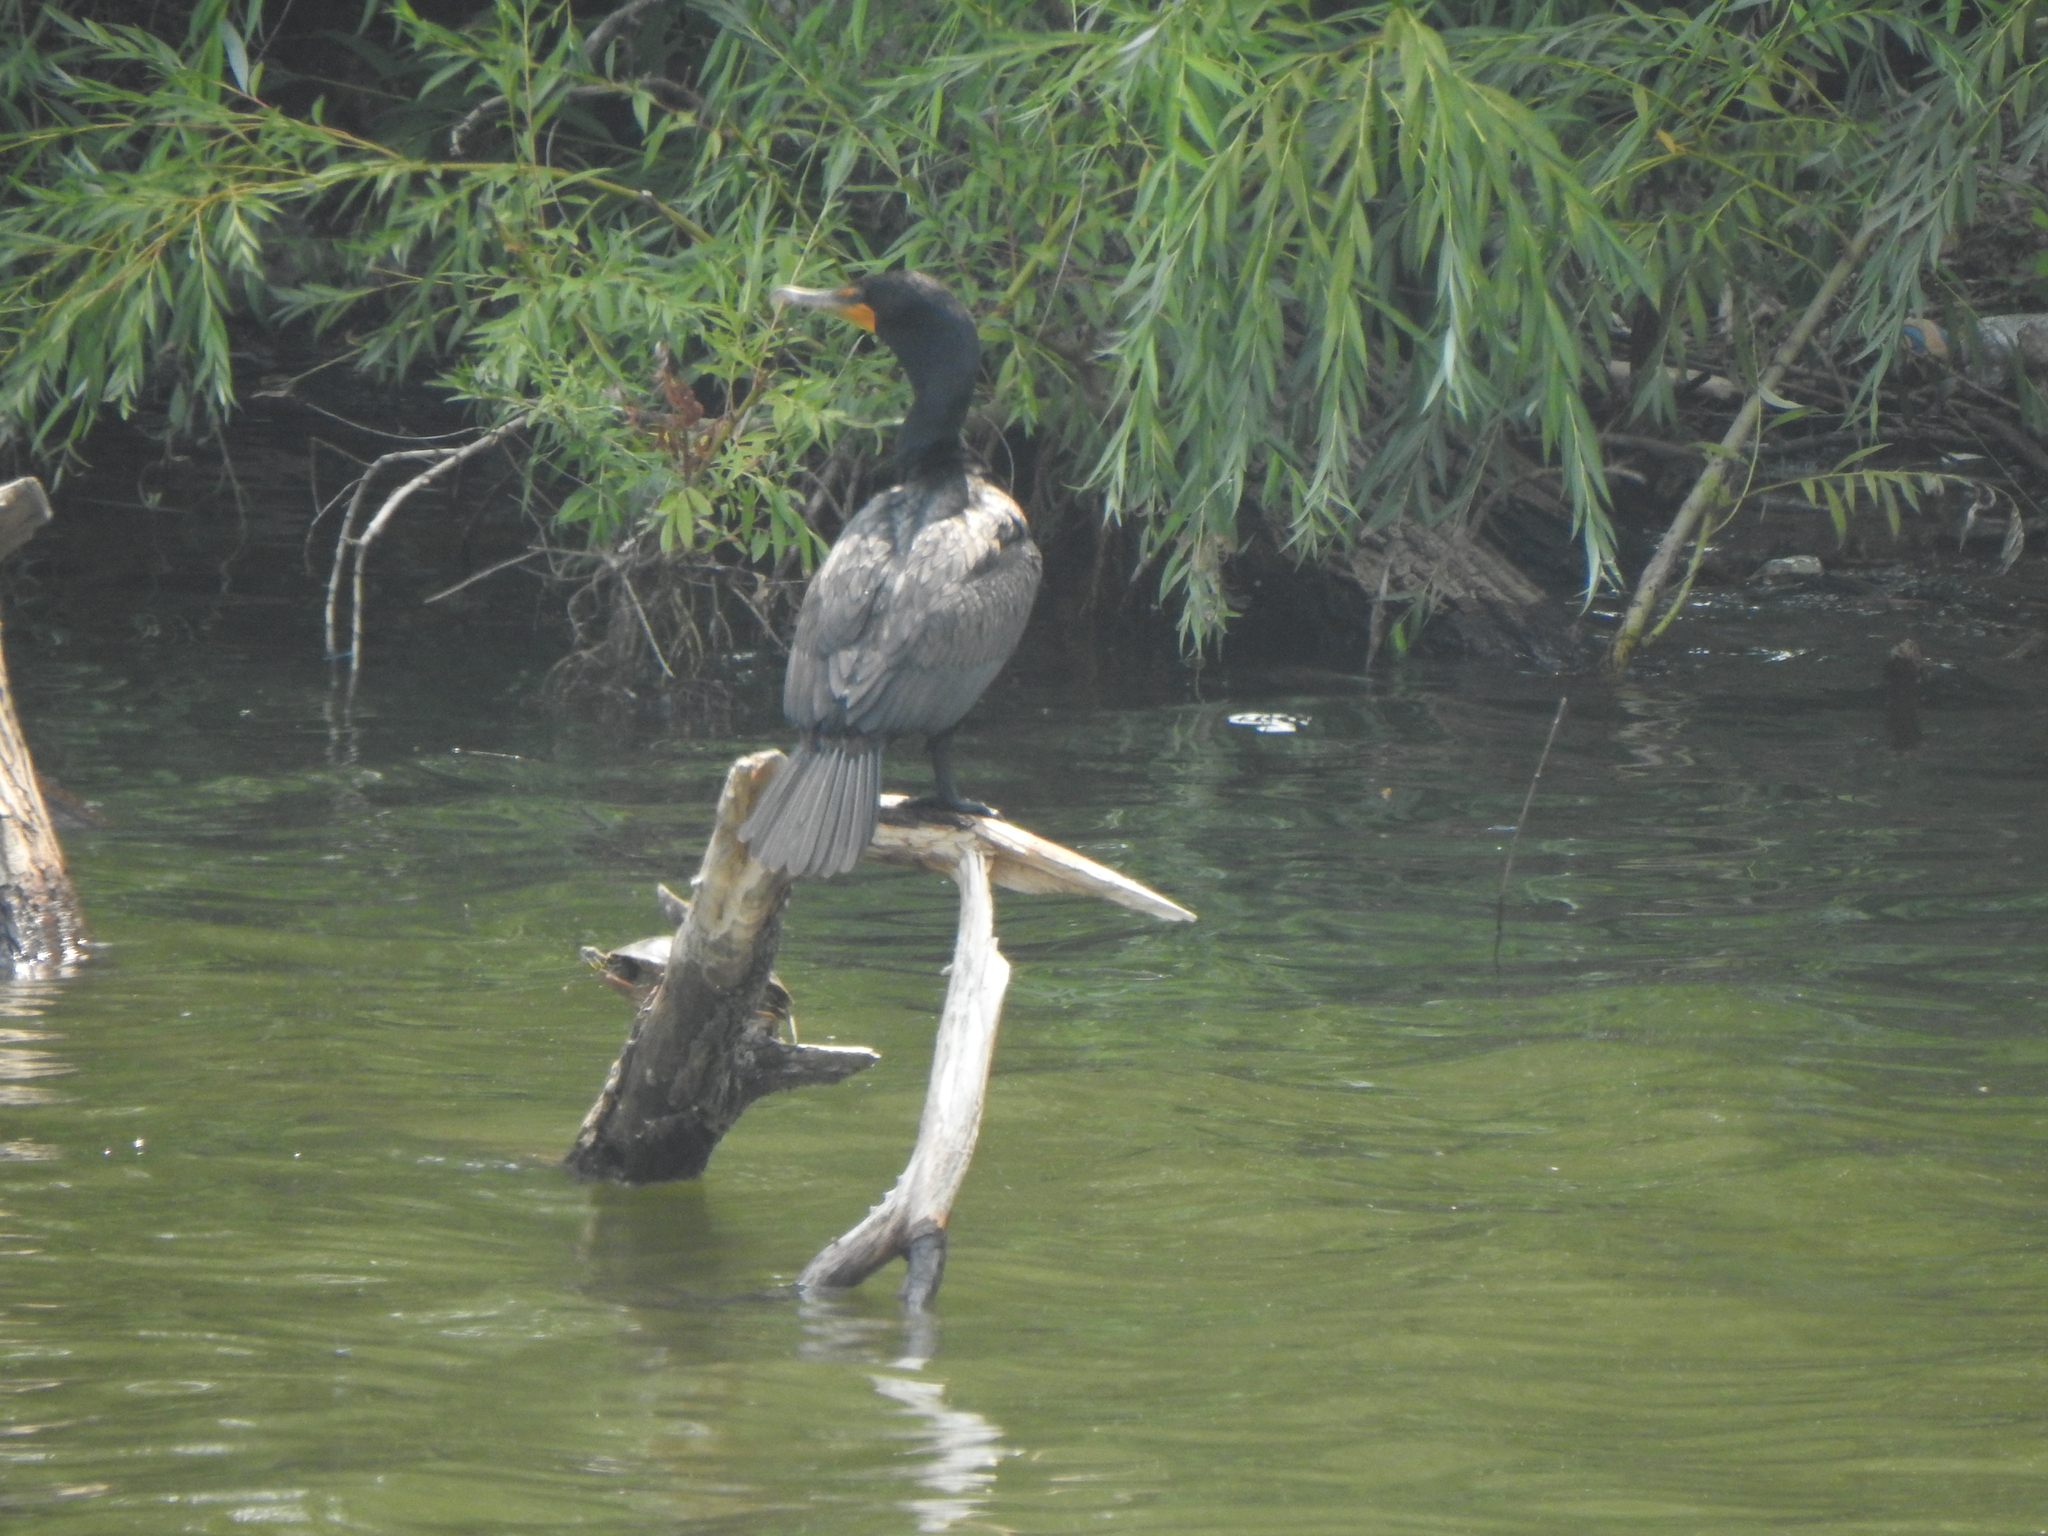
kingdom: Animalia
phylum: Chordata
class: Aves
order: Suliformes
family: Phalacrocoracidae
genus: Phalacrocorax
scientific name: Phalacrocorax auritus
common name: Double-crested cormorant
